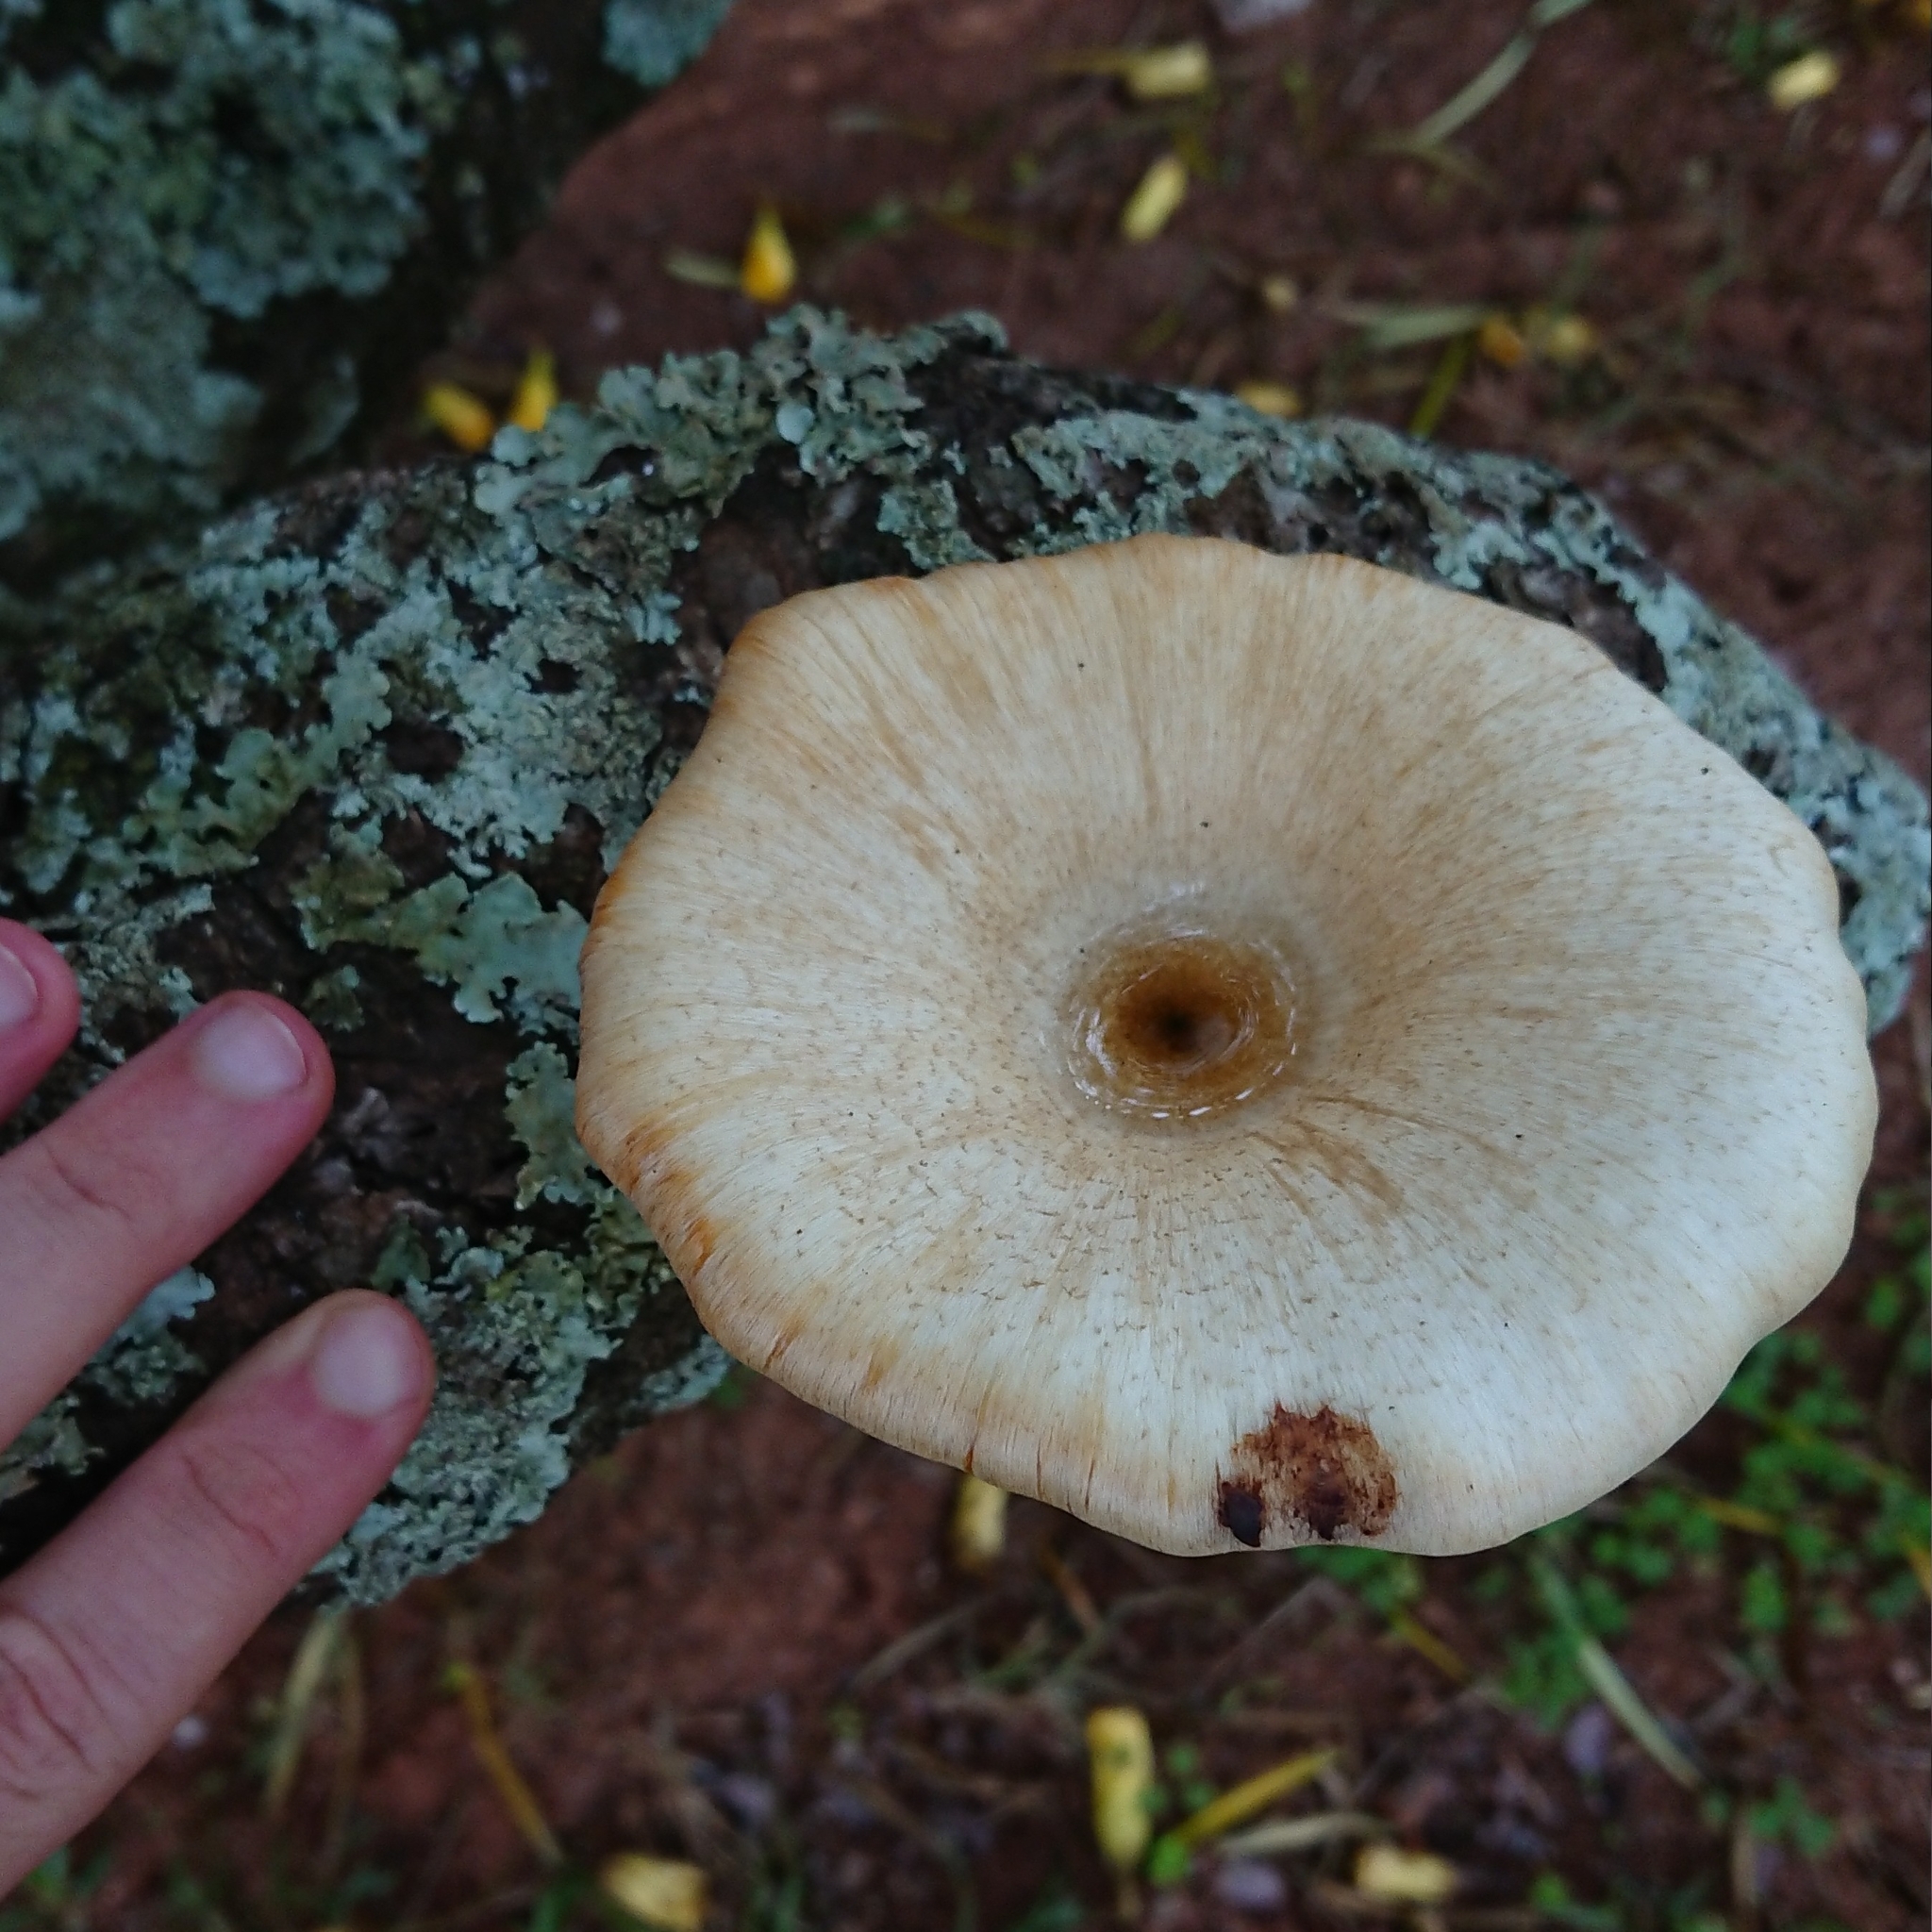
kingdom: Fungi
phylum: Basidiomycota
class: Agaricomycetes
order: Polyporales
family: Polyporaceae
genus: Lentinus
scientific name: Lentinus sajor-caju
